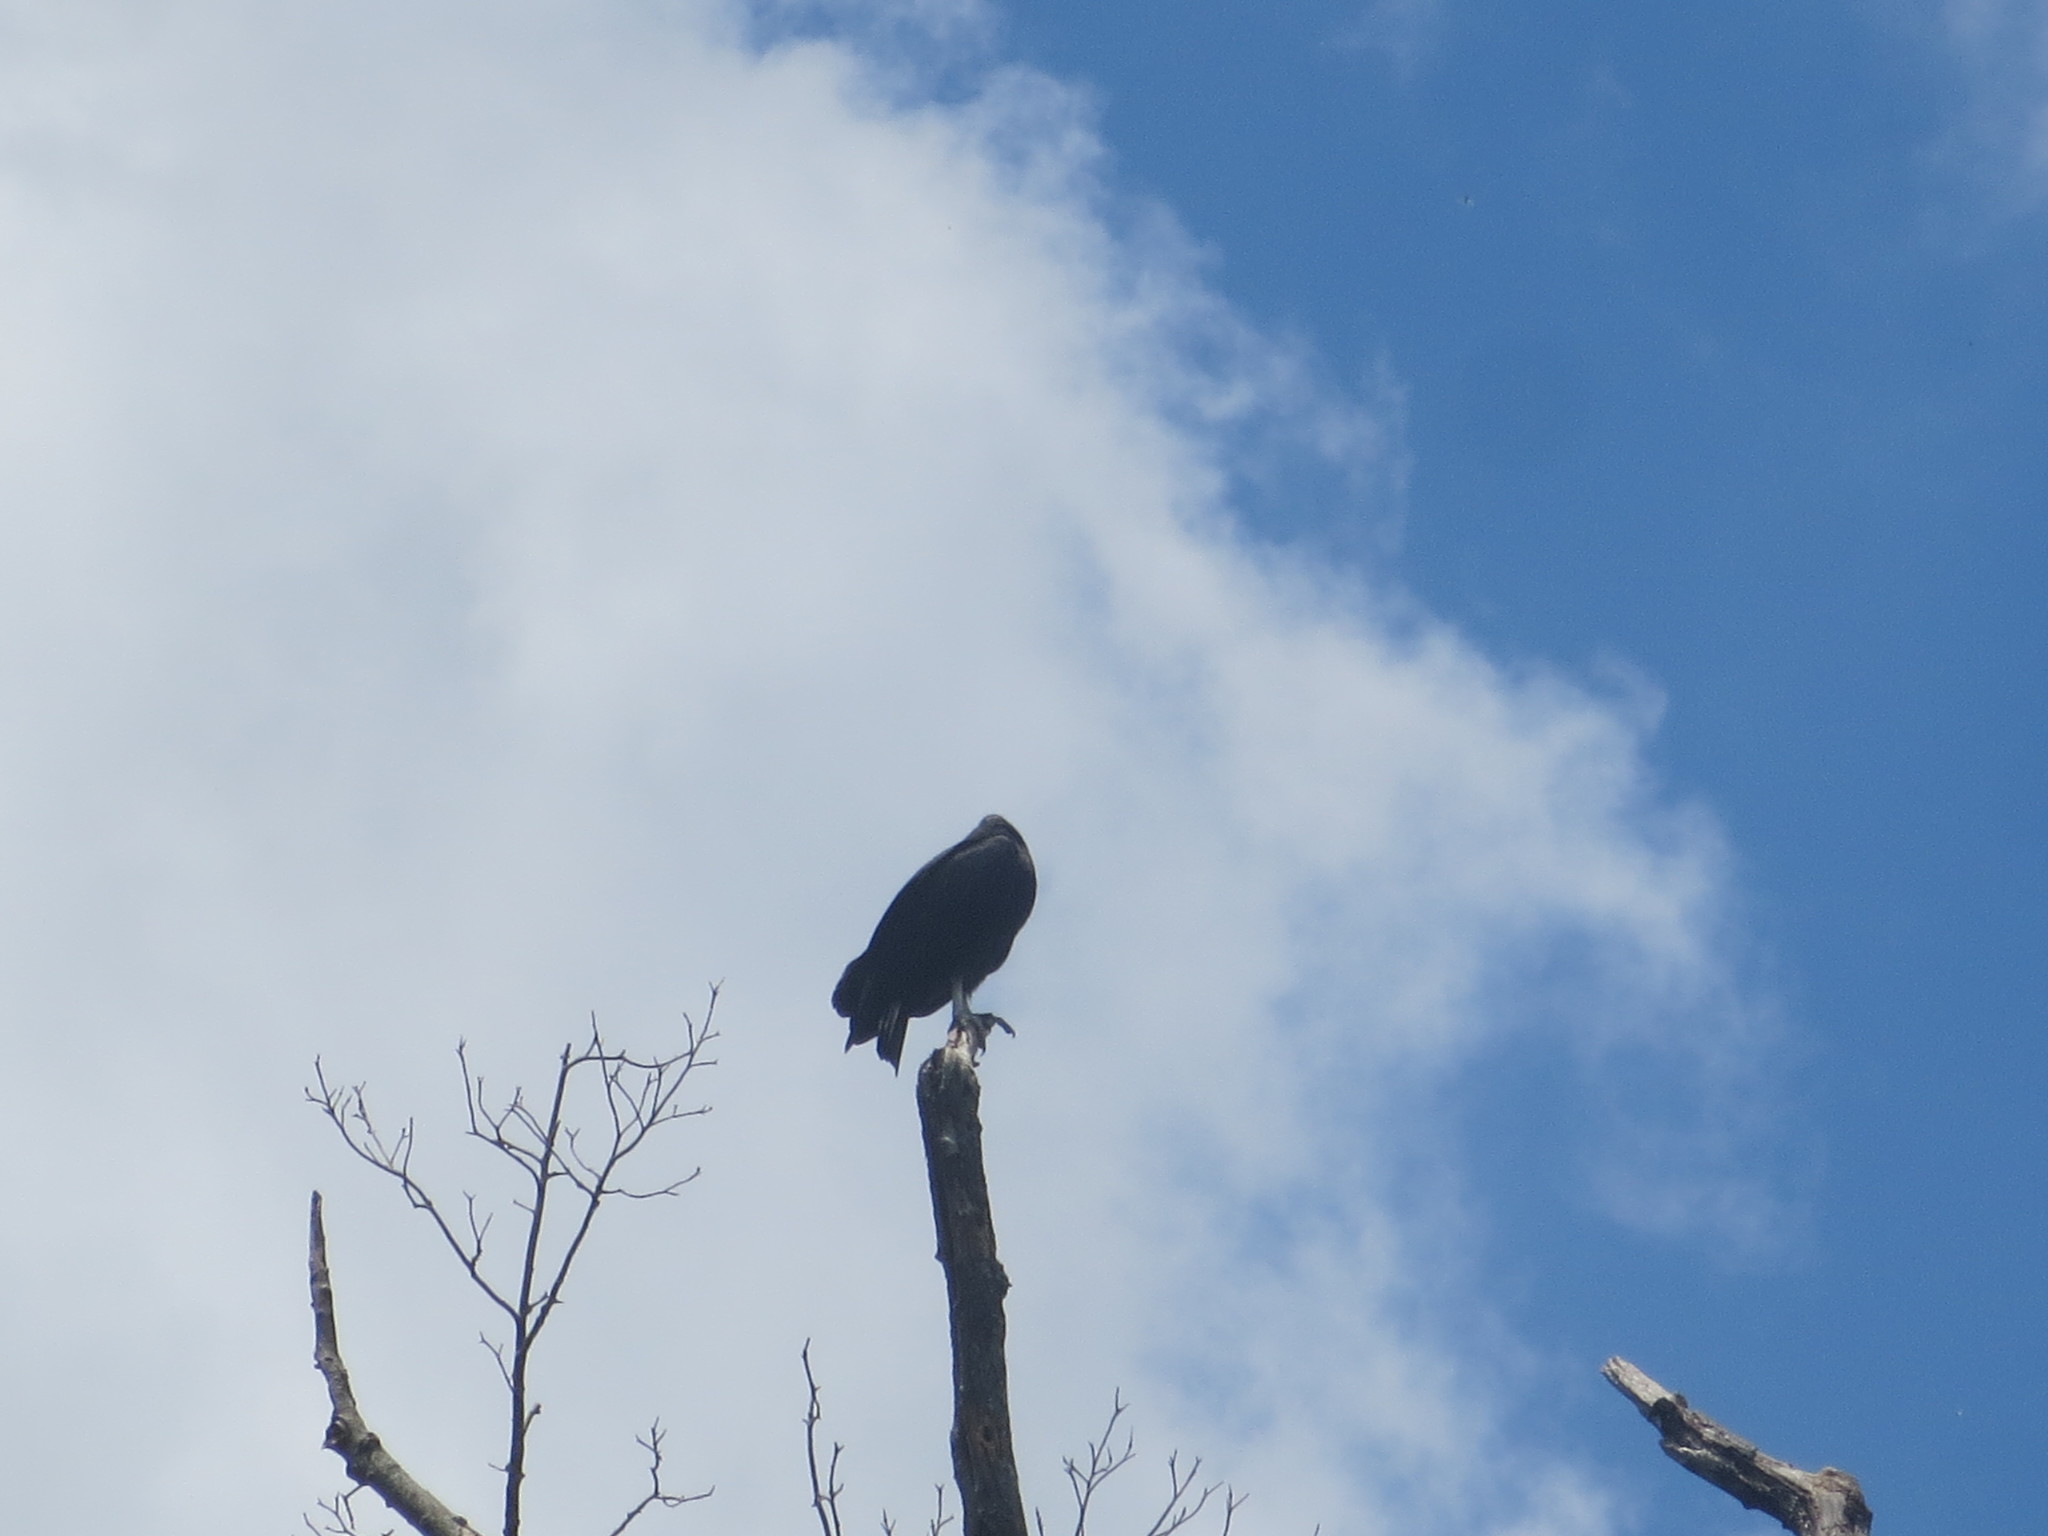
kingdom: Animalia
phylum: Chordata
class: Aves
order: Accipitriformes
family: Cathartidae
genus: Coragyps
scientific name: Coragyps atratus
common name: Black vulture
